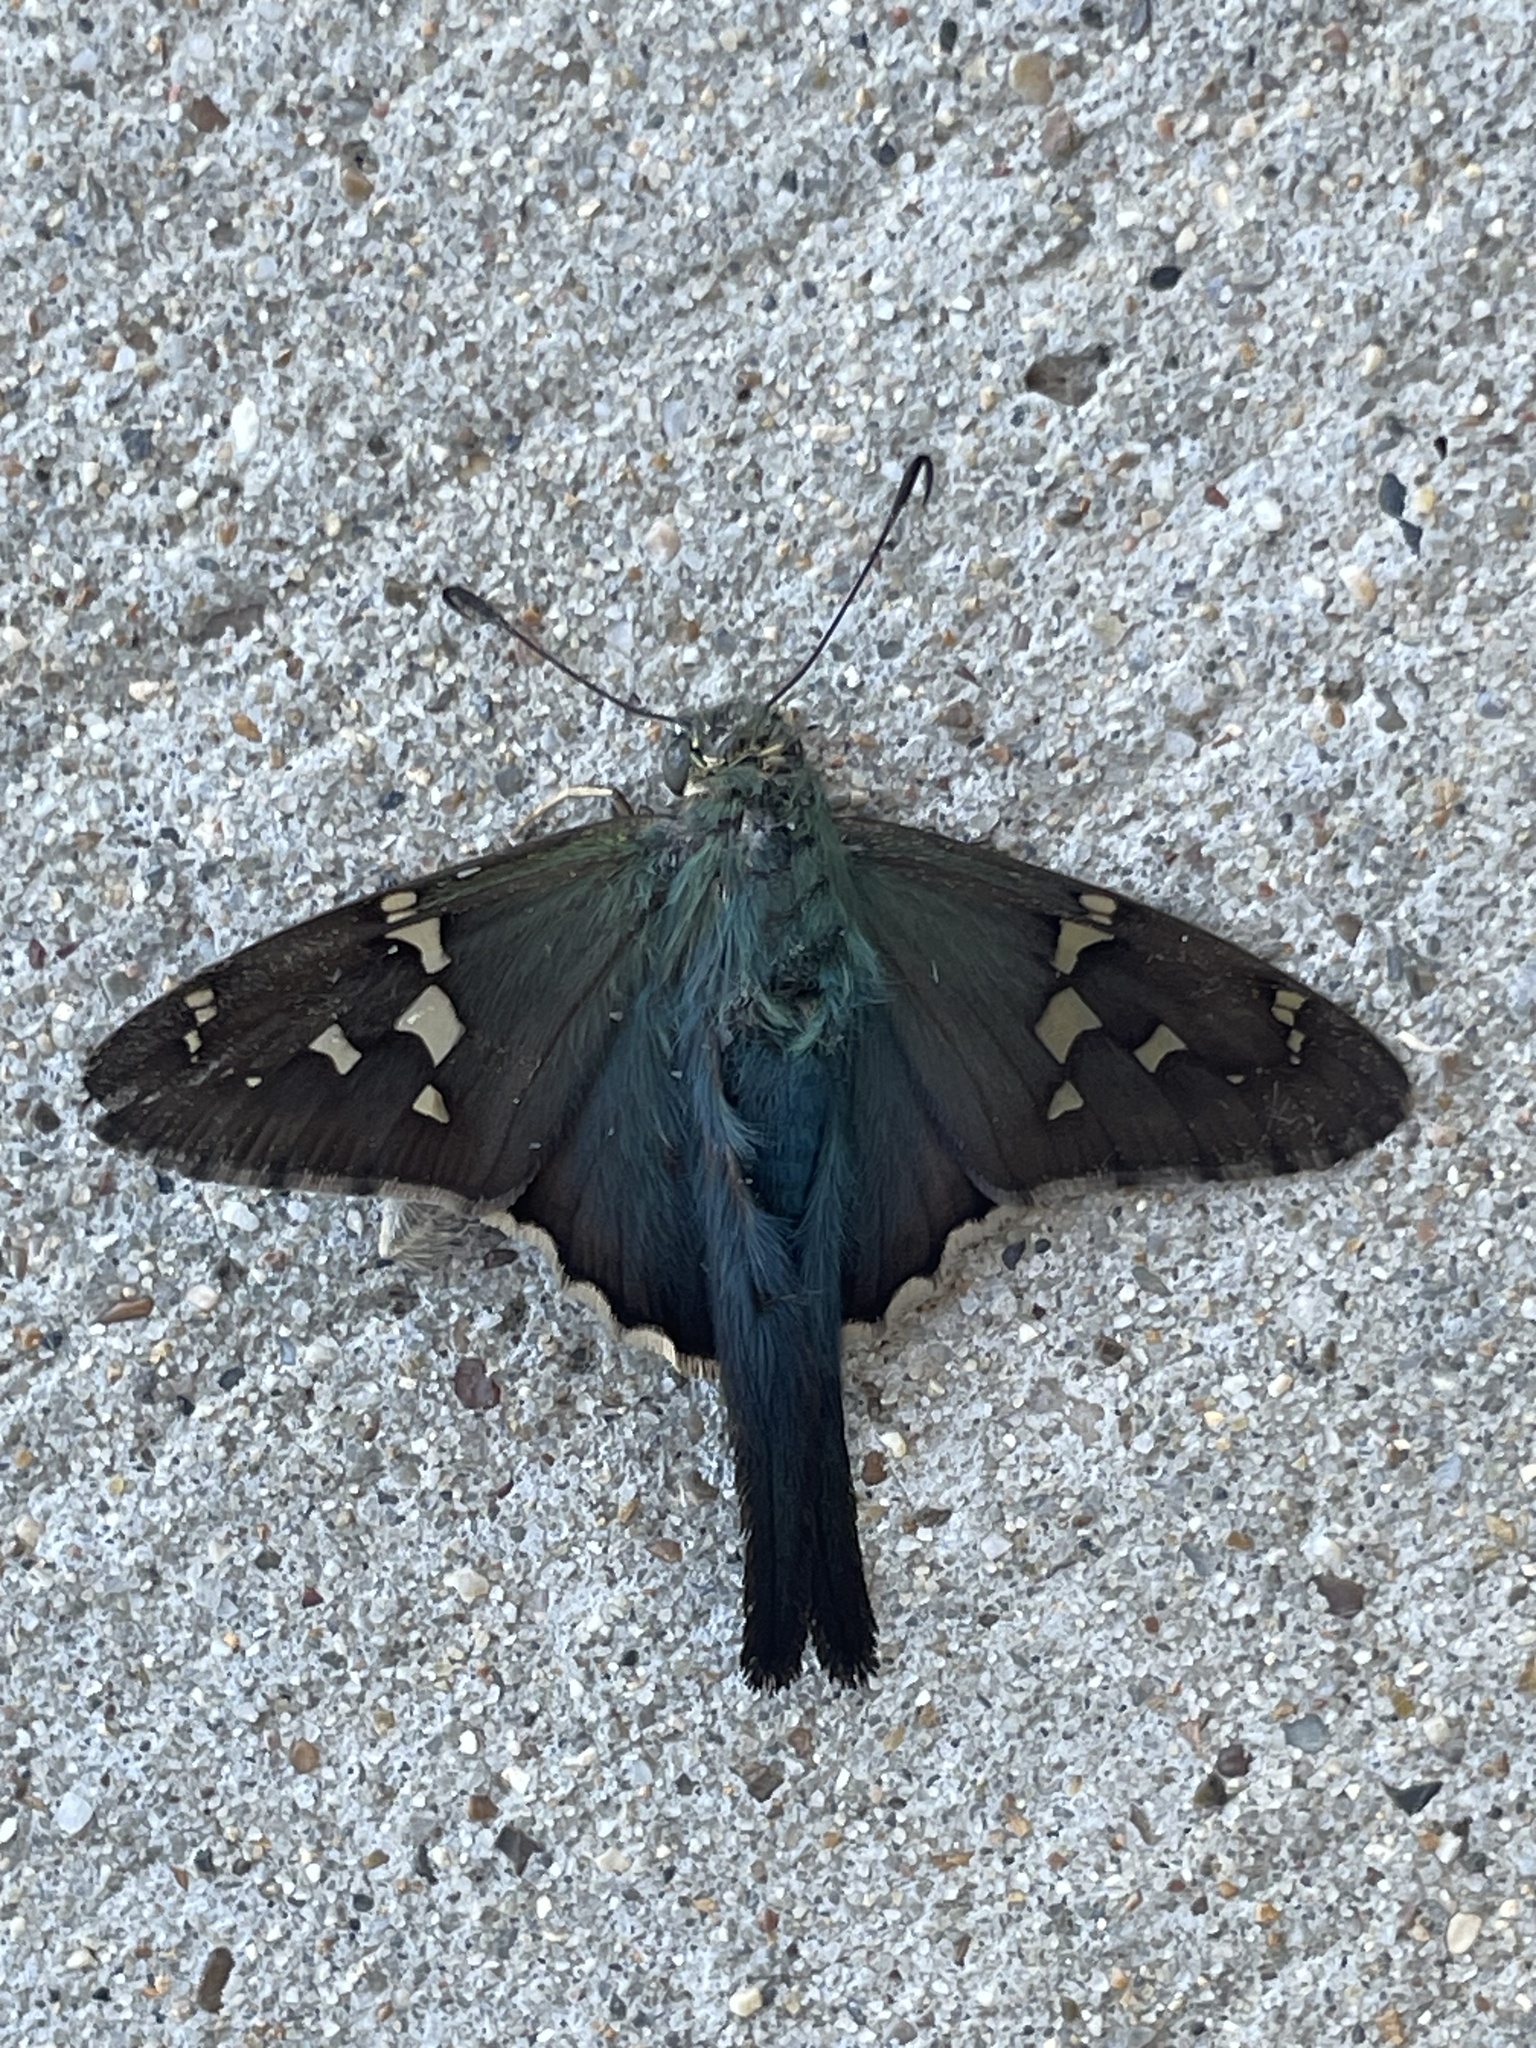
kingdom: Animalia
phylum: Arthropoda
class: Insecta
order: Lepidoptera
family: Hesperiidae
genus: Urbanus
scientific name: Urbanus proteus
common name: Long-tailed skipper
